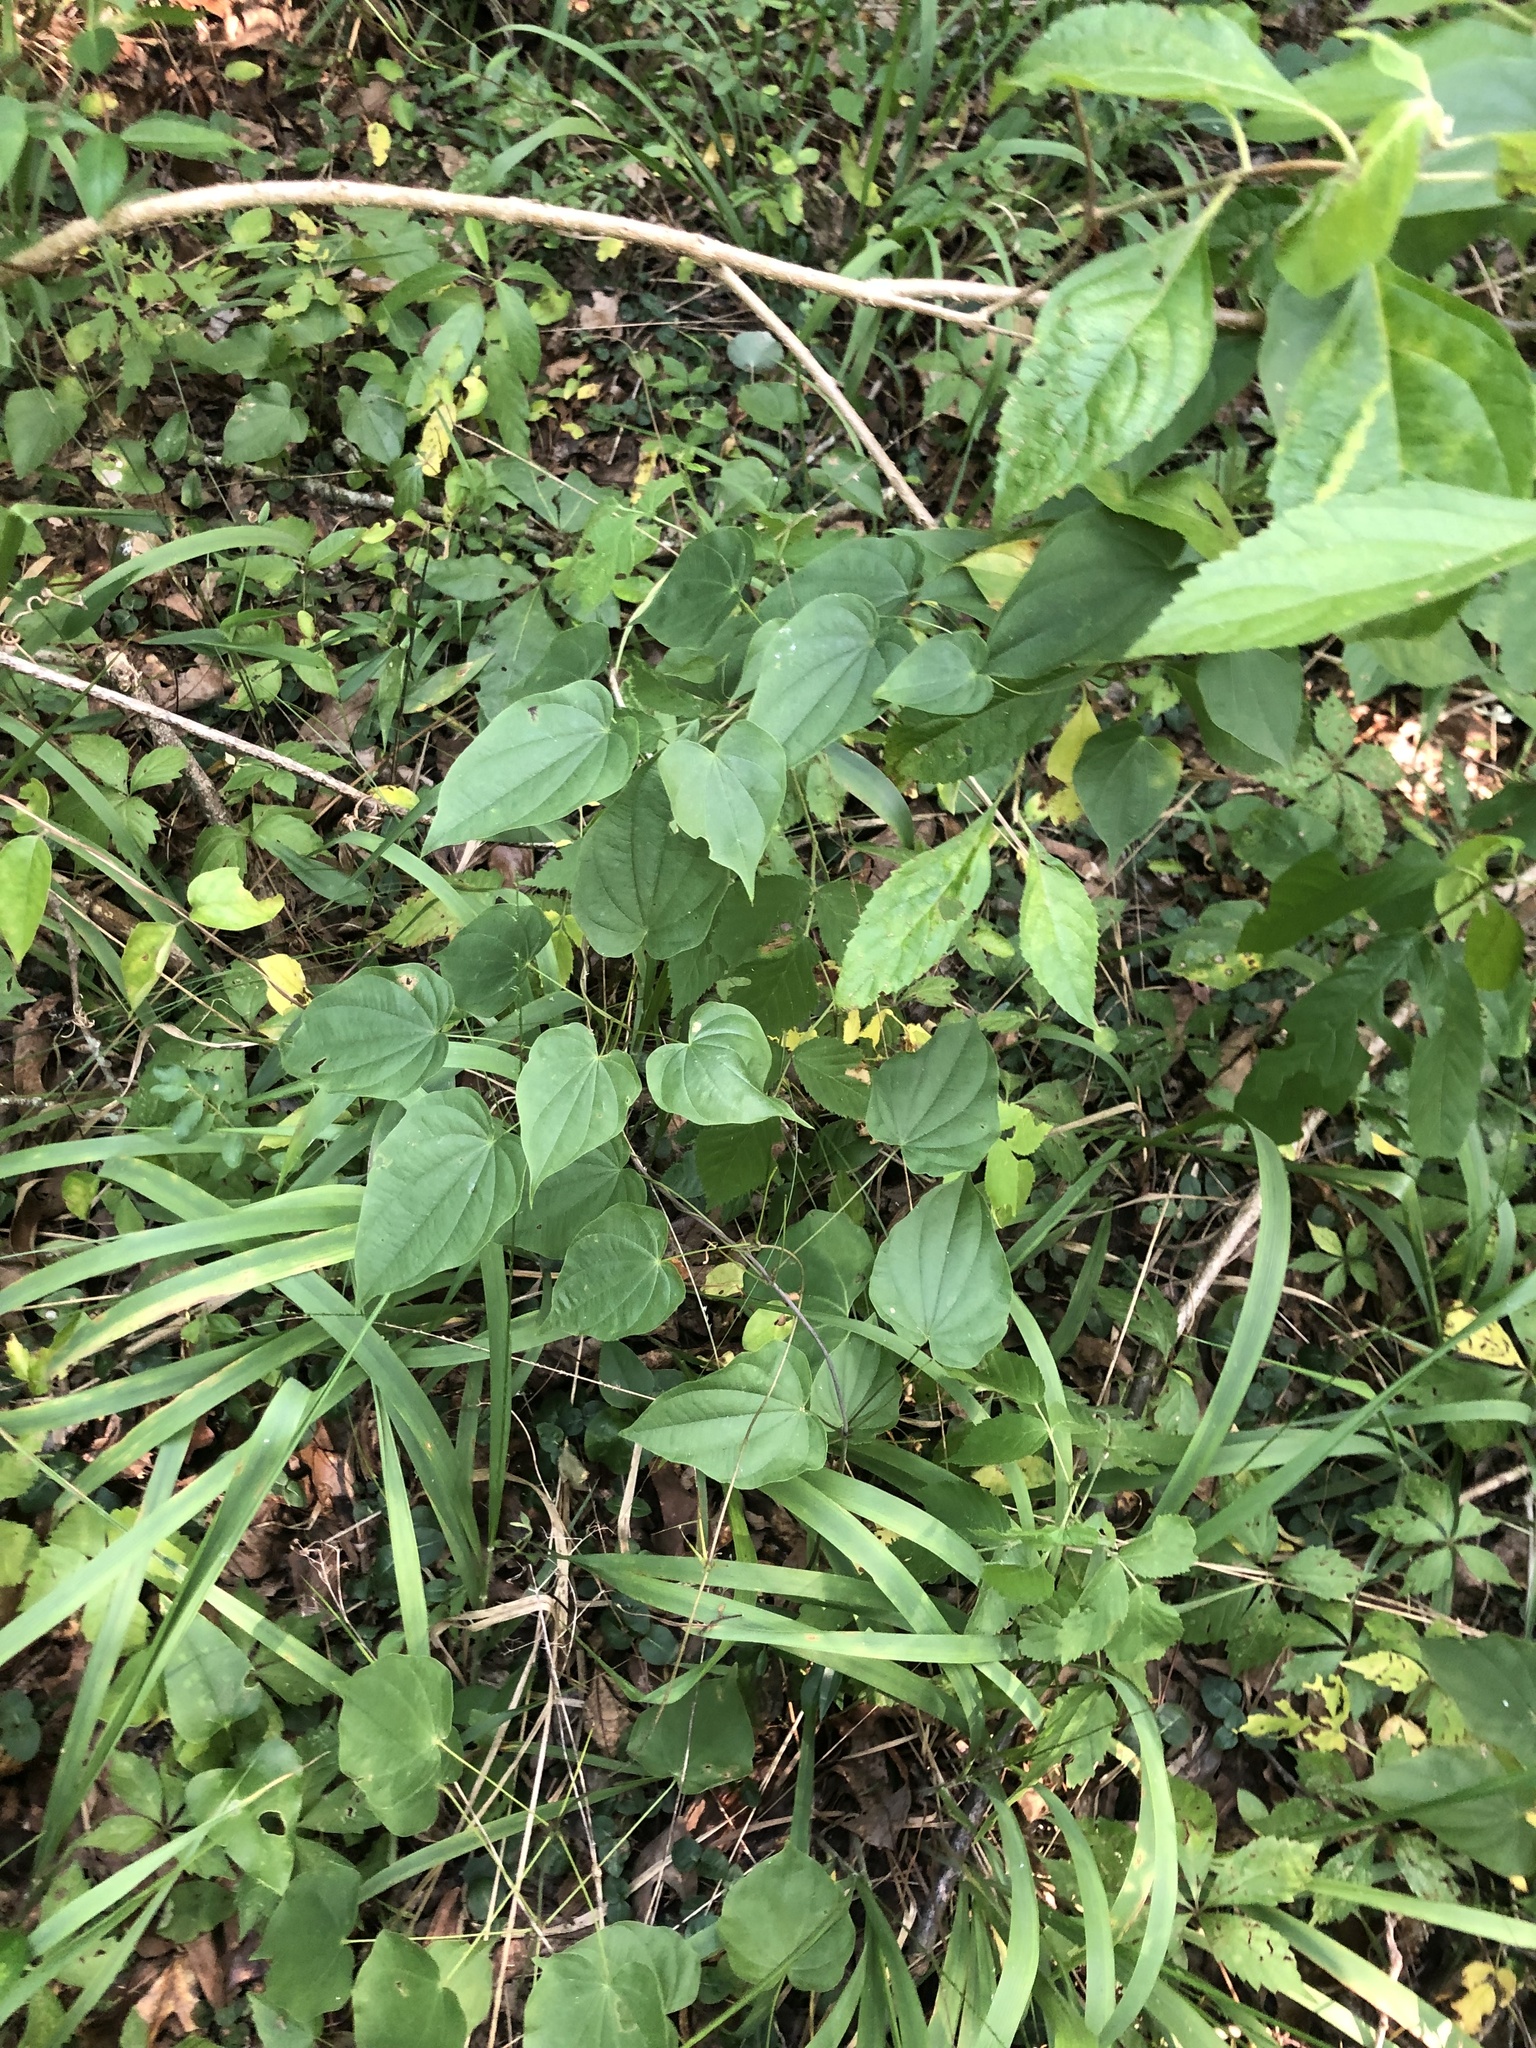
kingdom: Plantae
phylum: Tracheophyta
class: Liliopsida
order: Dioscoreales
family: Dioscoreaceae
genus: Dioscorea
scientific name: Dioscorea villosa
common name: Wild yam
